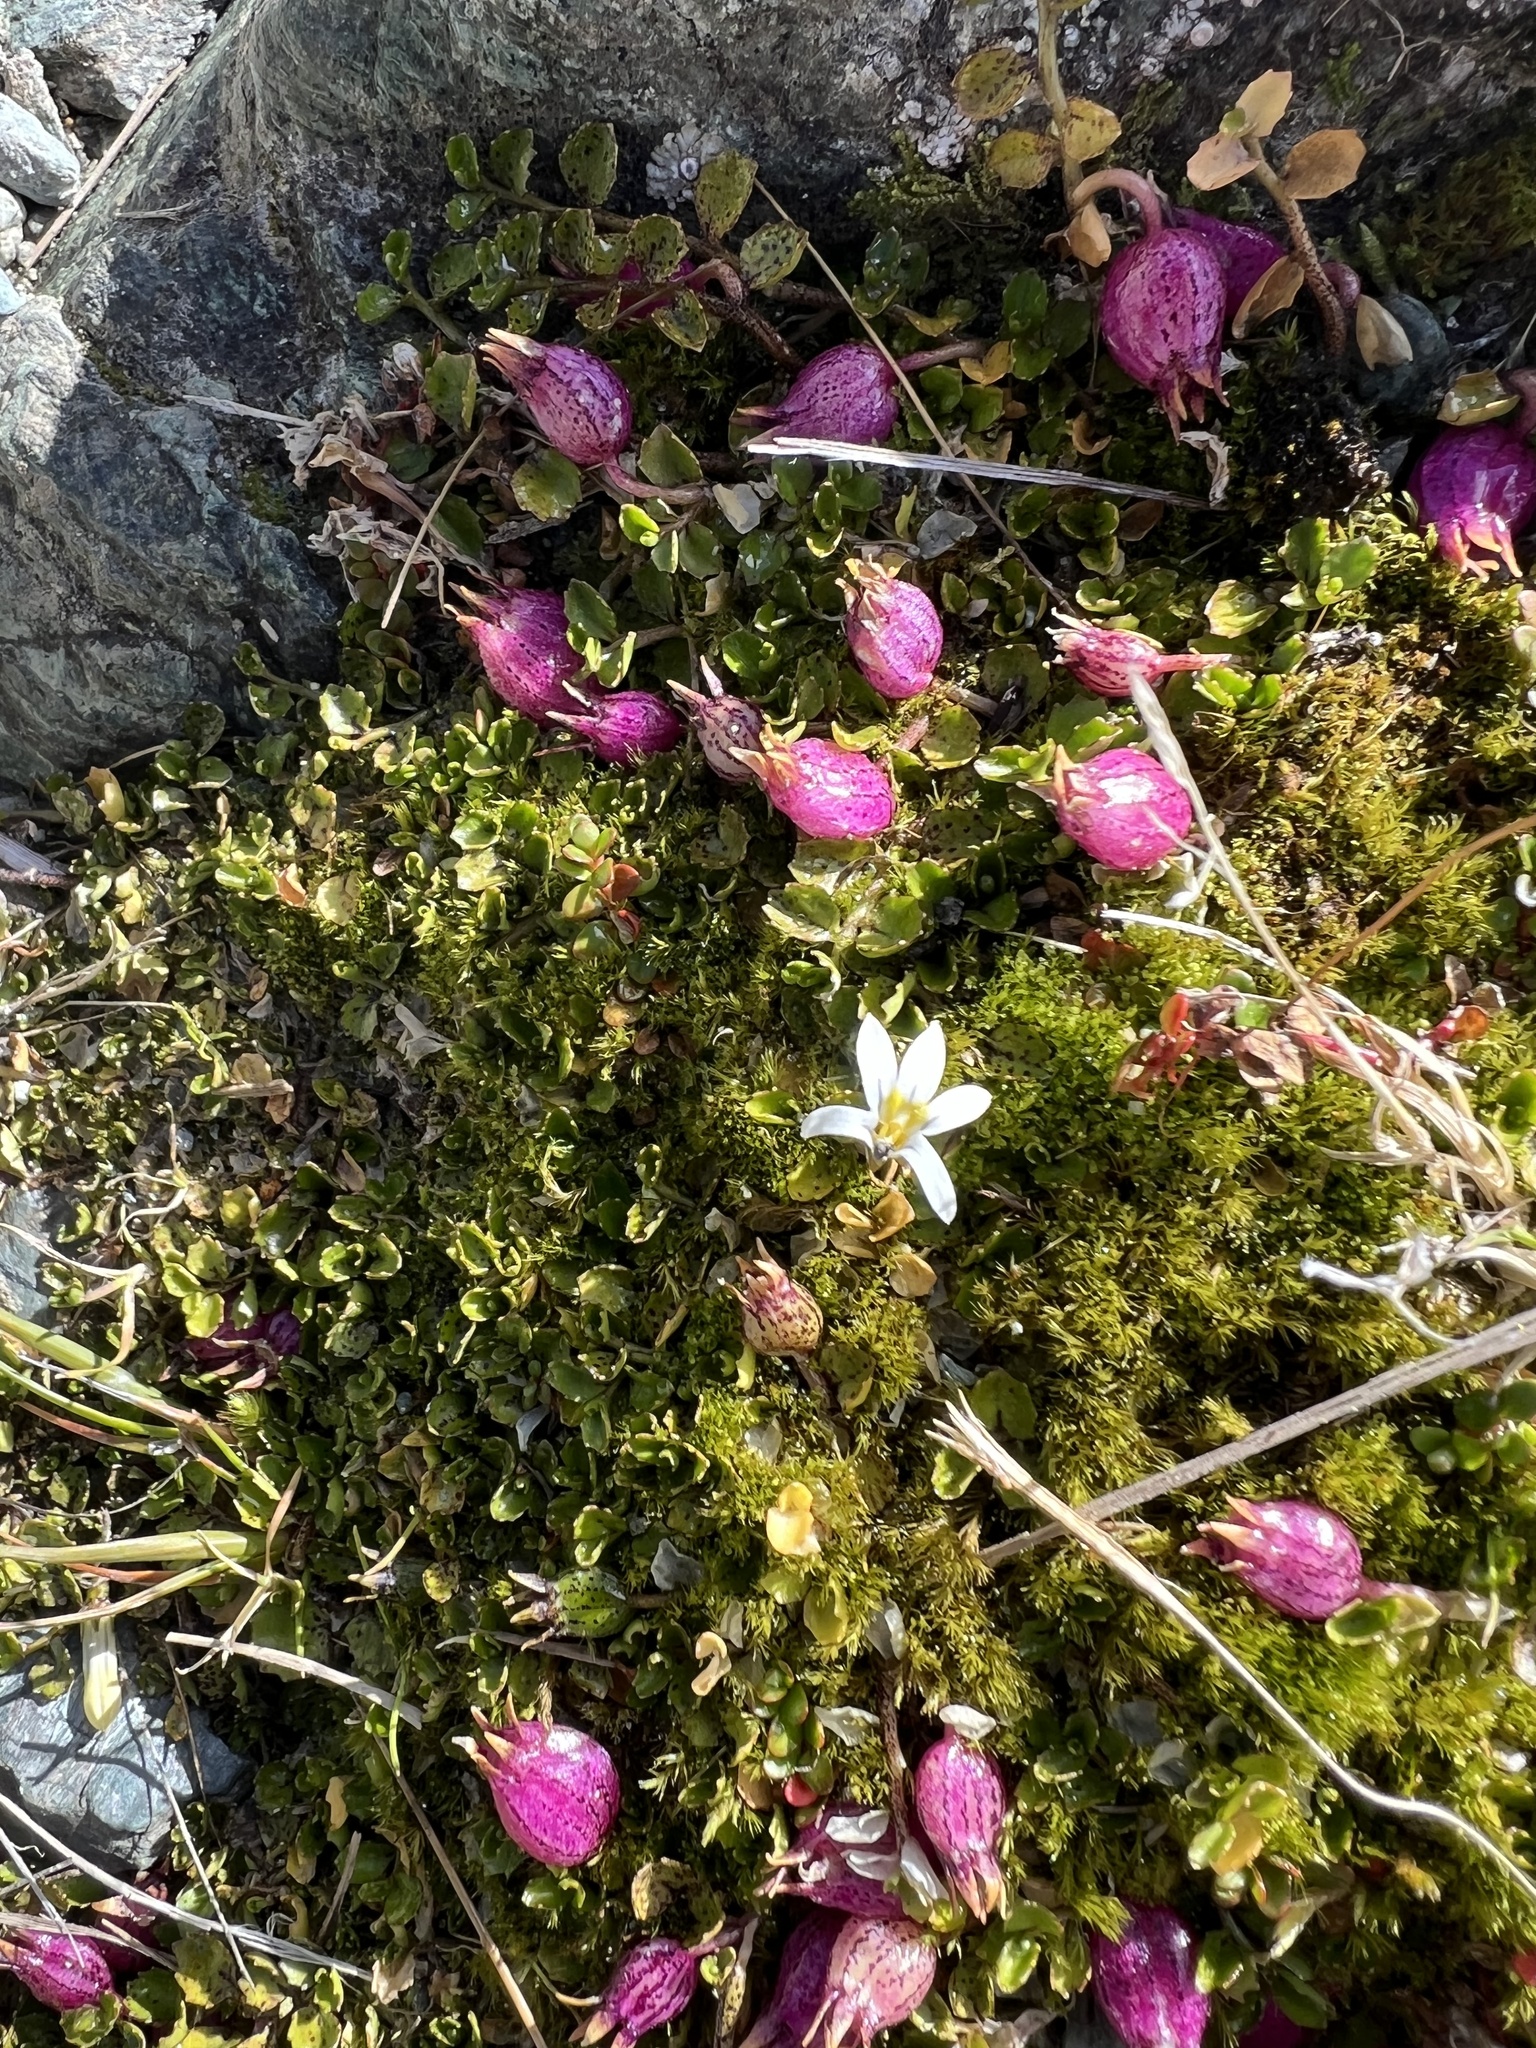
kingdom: Plantae
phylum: Tracheophyta
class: Magnoliopsida
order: Asterales
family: Campanulaceae
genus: Lobelia
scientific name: Lobelia angulata
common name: Lawn lobelia
